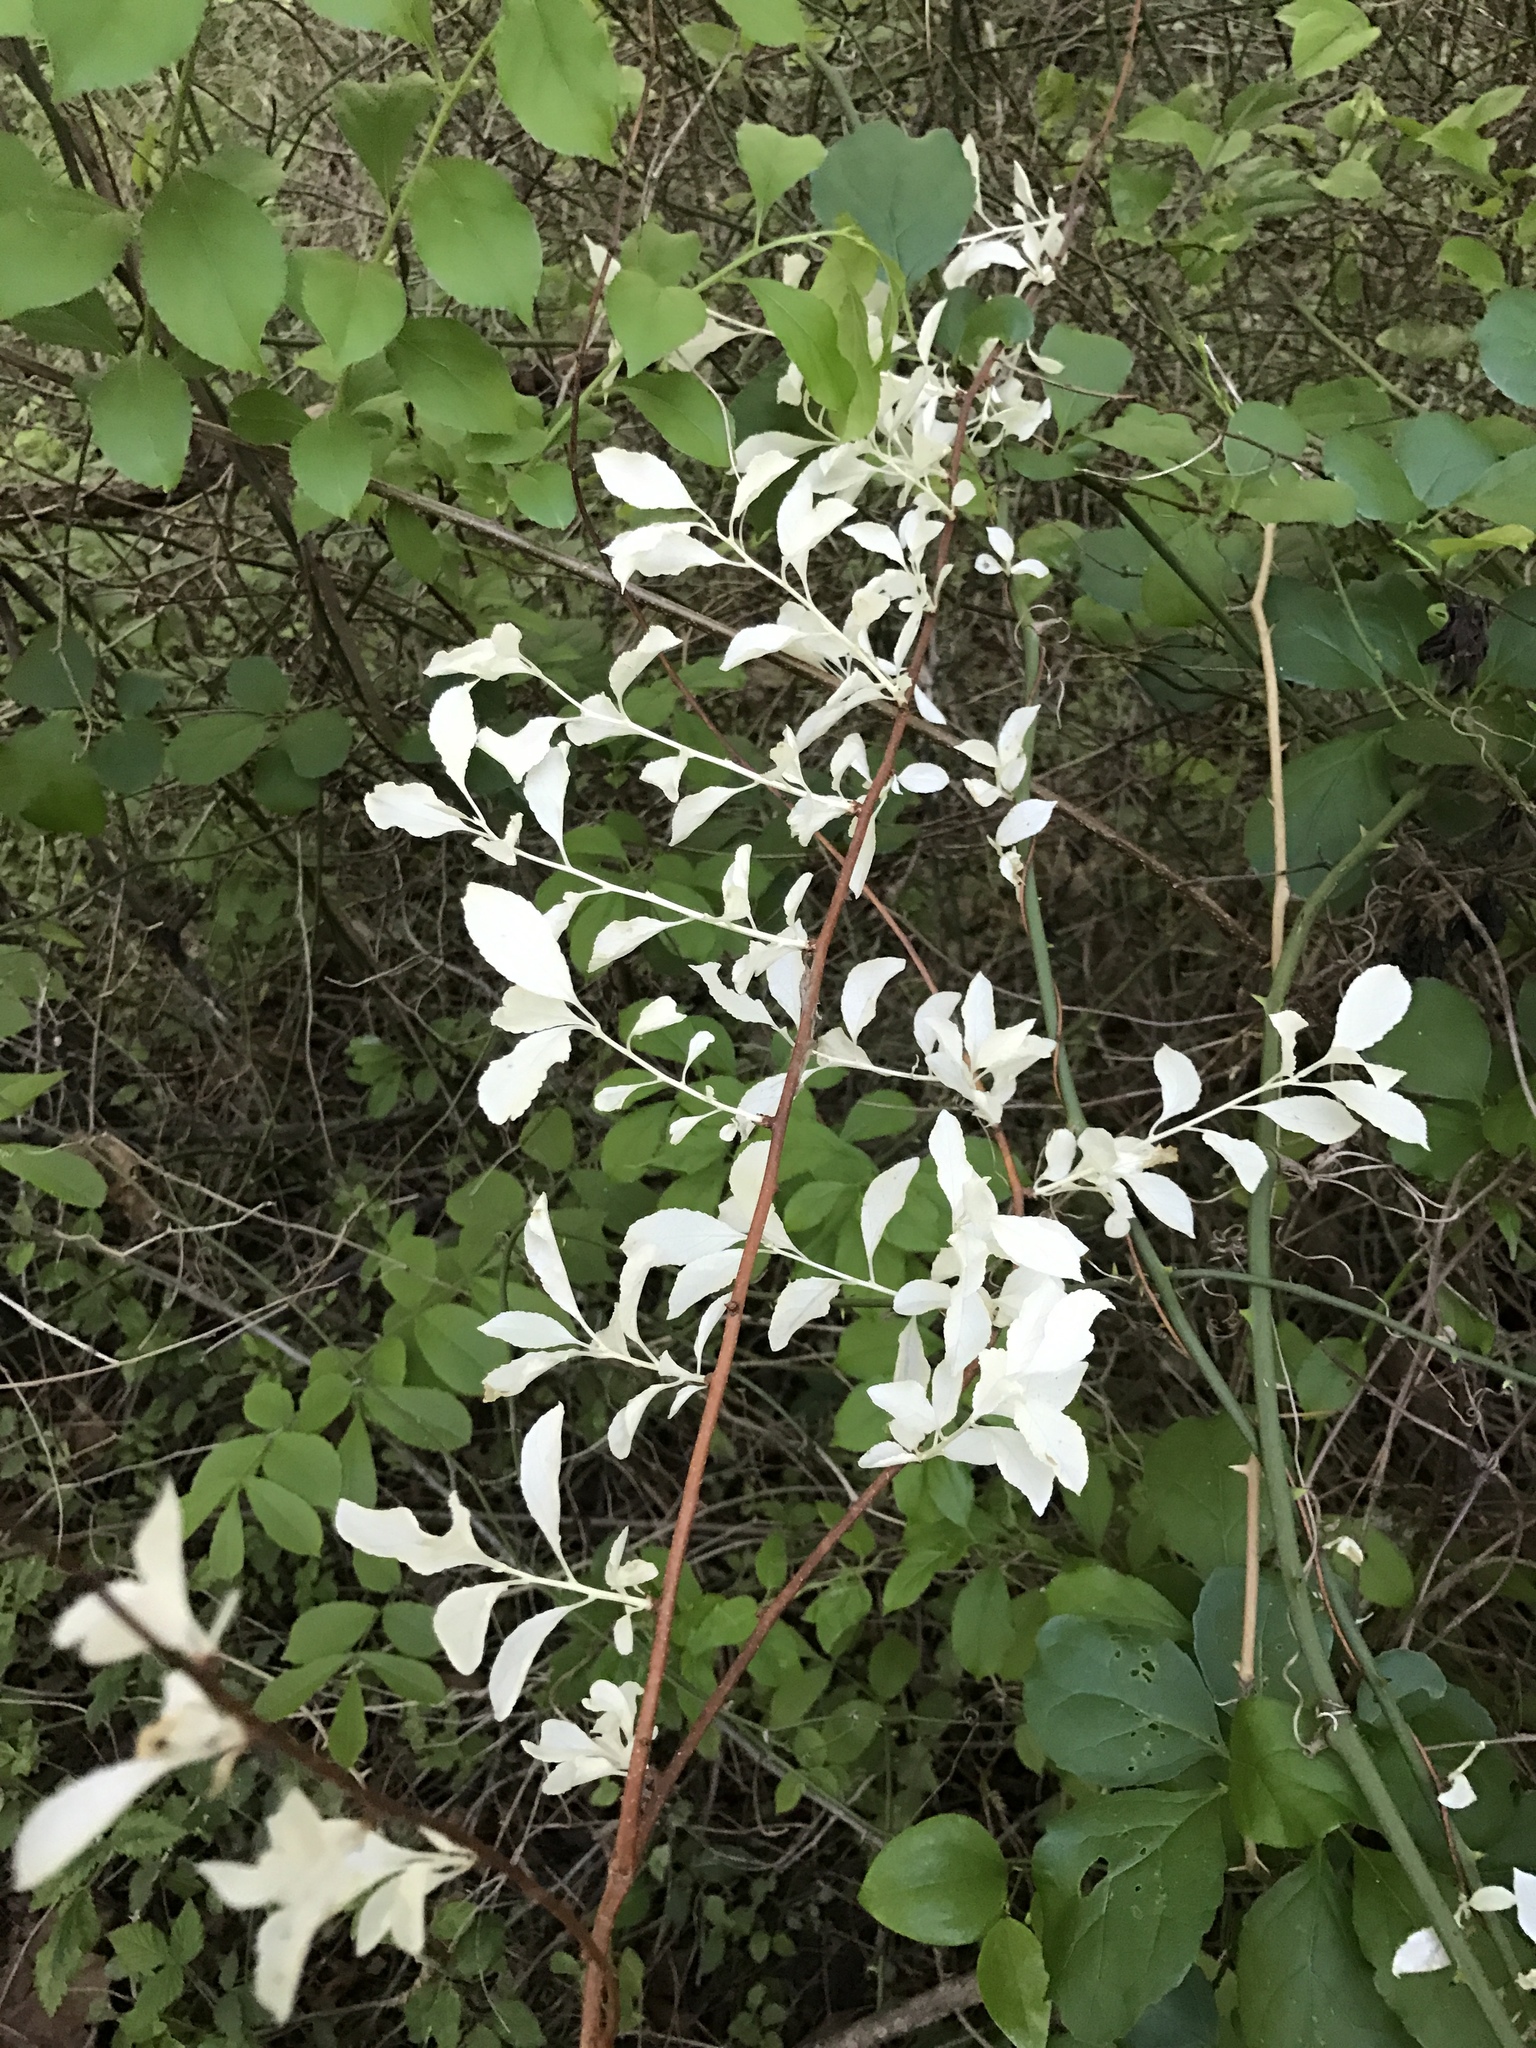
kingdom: Plantae
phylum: Tracheophyta
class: Magnoliopsida
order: Celastrales
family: Celastraceae
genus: Celastrus
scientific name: Celastrus orbiculatus
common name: Oriental bittersweet
